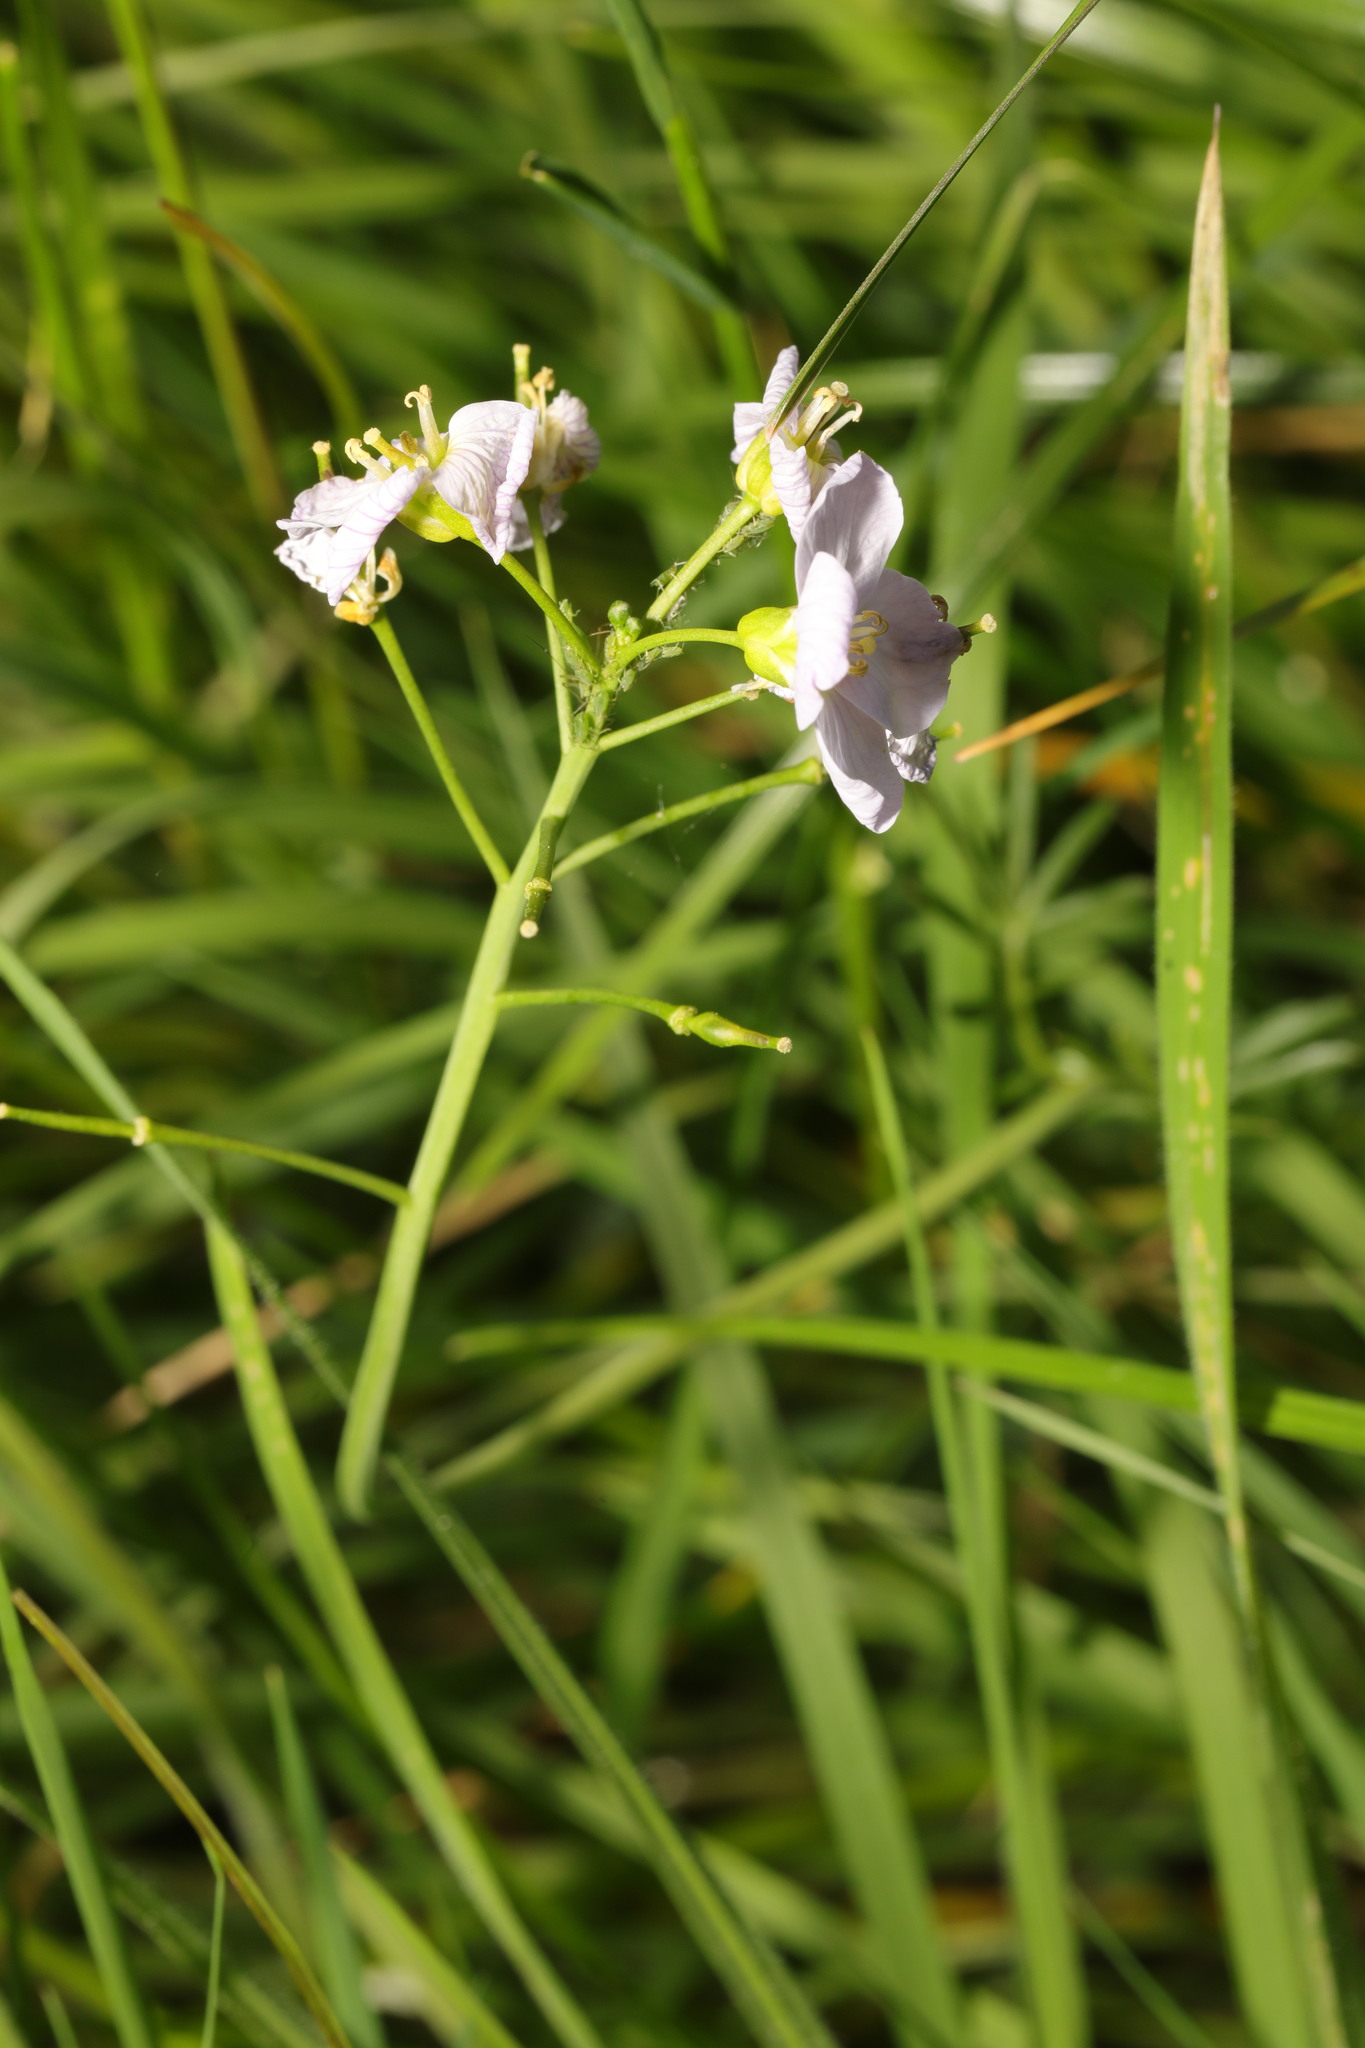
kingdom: Plantae
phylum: Tracheophyta
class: Magnoliopsida
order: Brassicales
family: Brassicaceae
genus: Cardamine
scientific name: Cardamine pratensis
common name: Cuckoo flower
